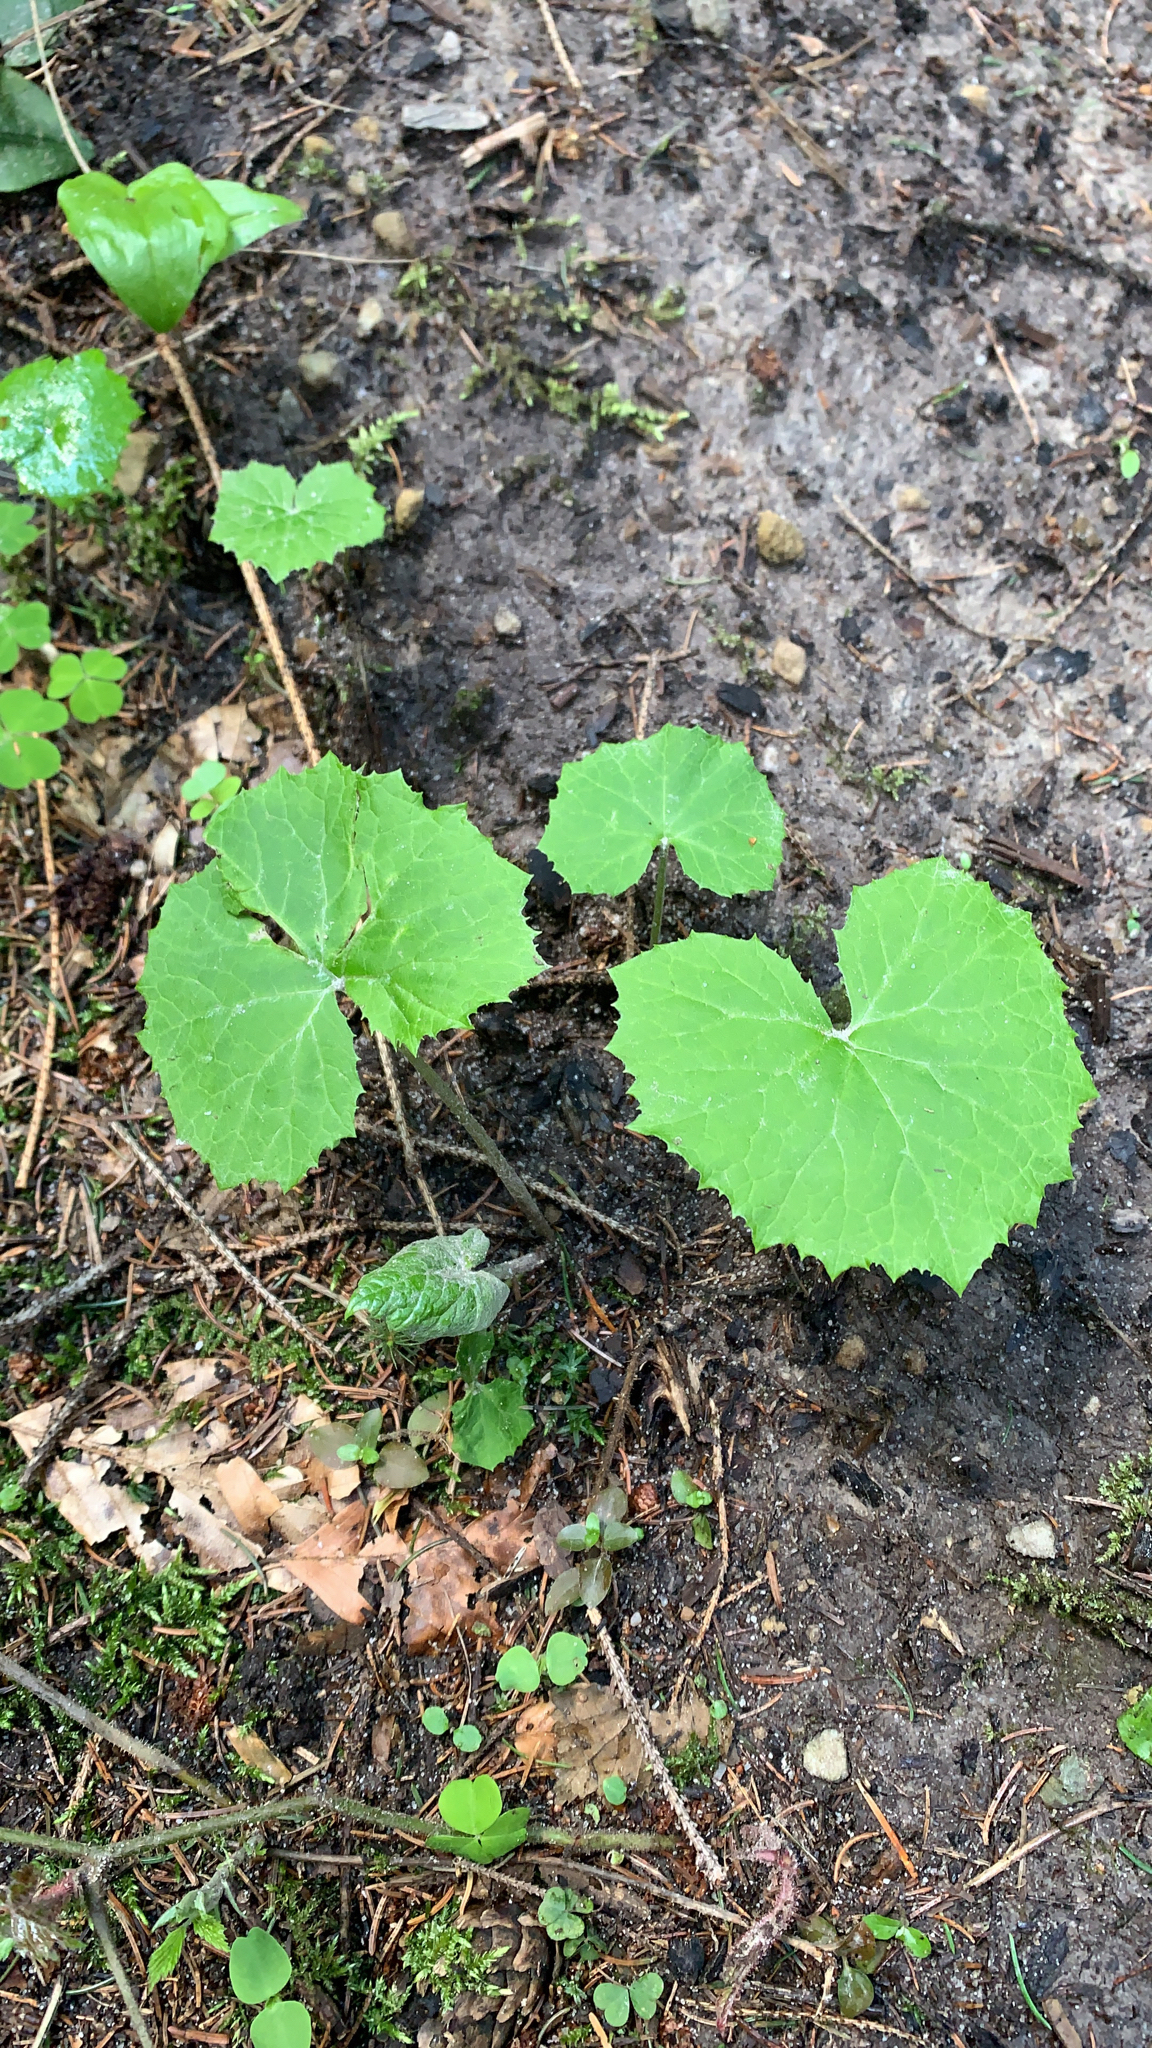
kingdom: Plantae
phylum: Tracheophyta
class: Magnoliopsida
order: Asterales
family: Asteraceae
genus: Petasites
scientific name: Petasites albus
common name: White butterbur
